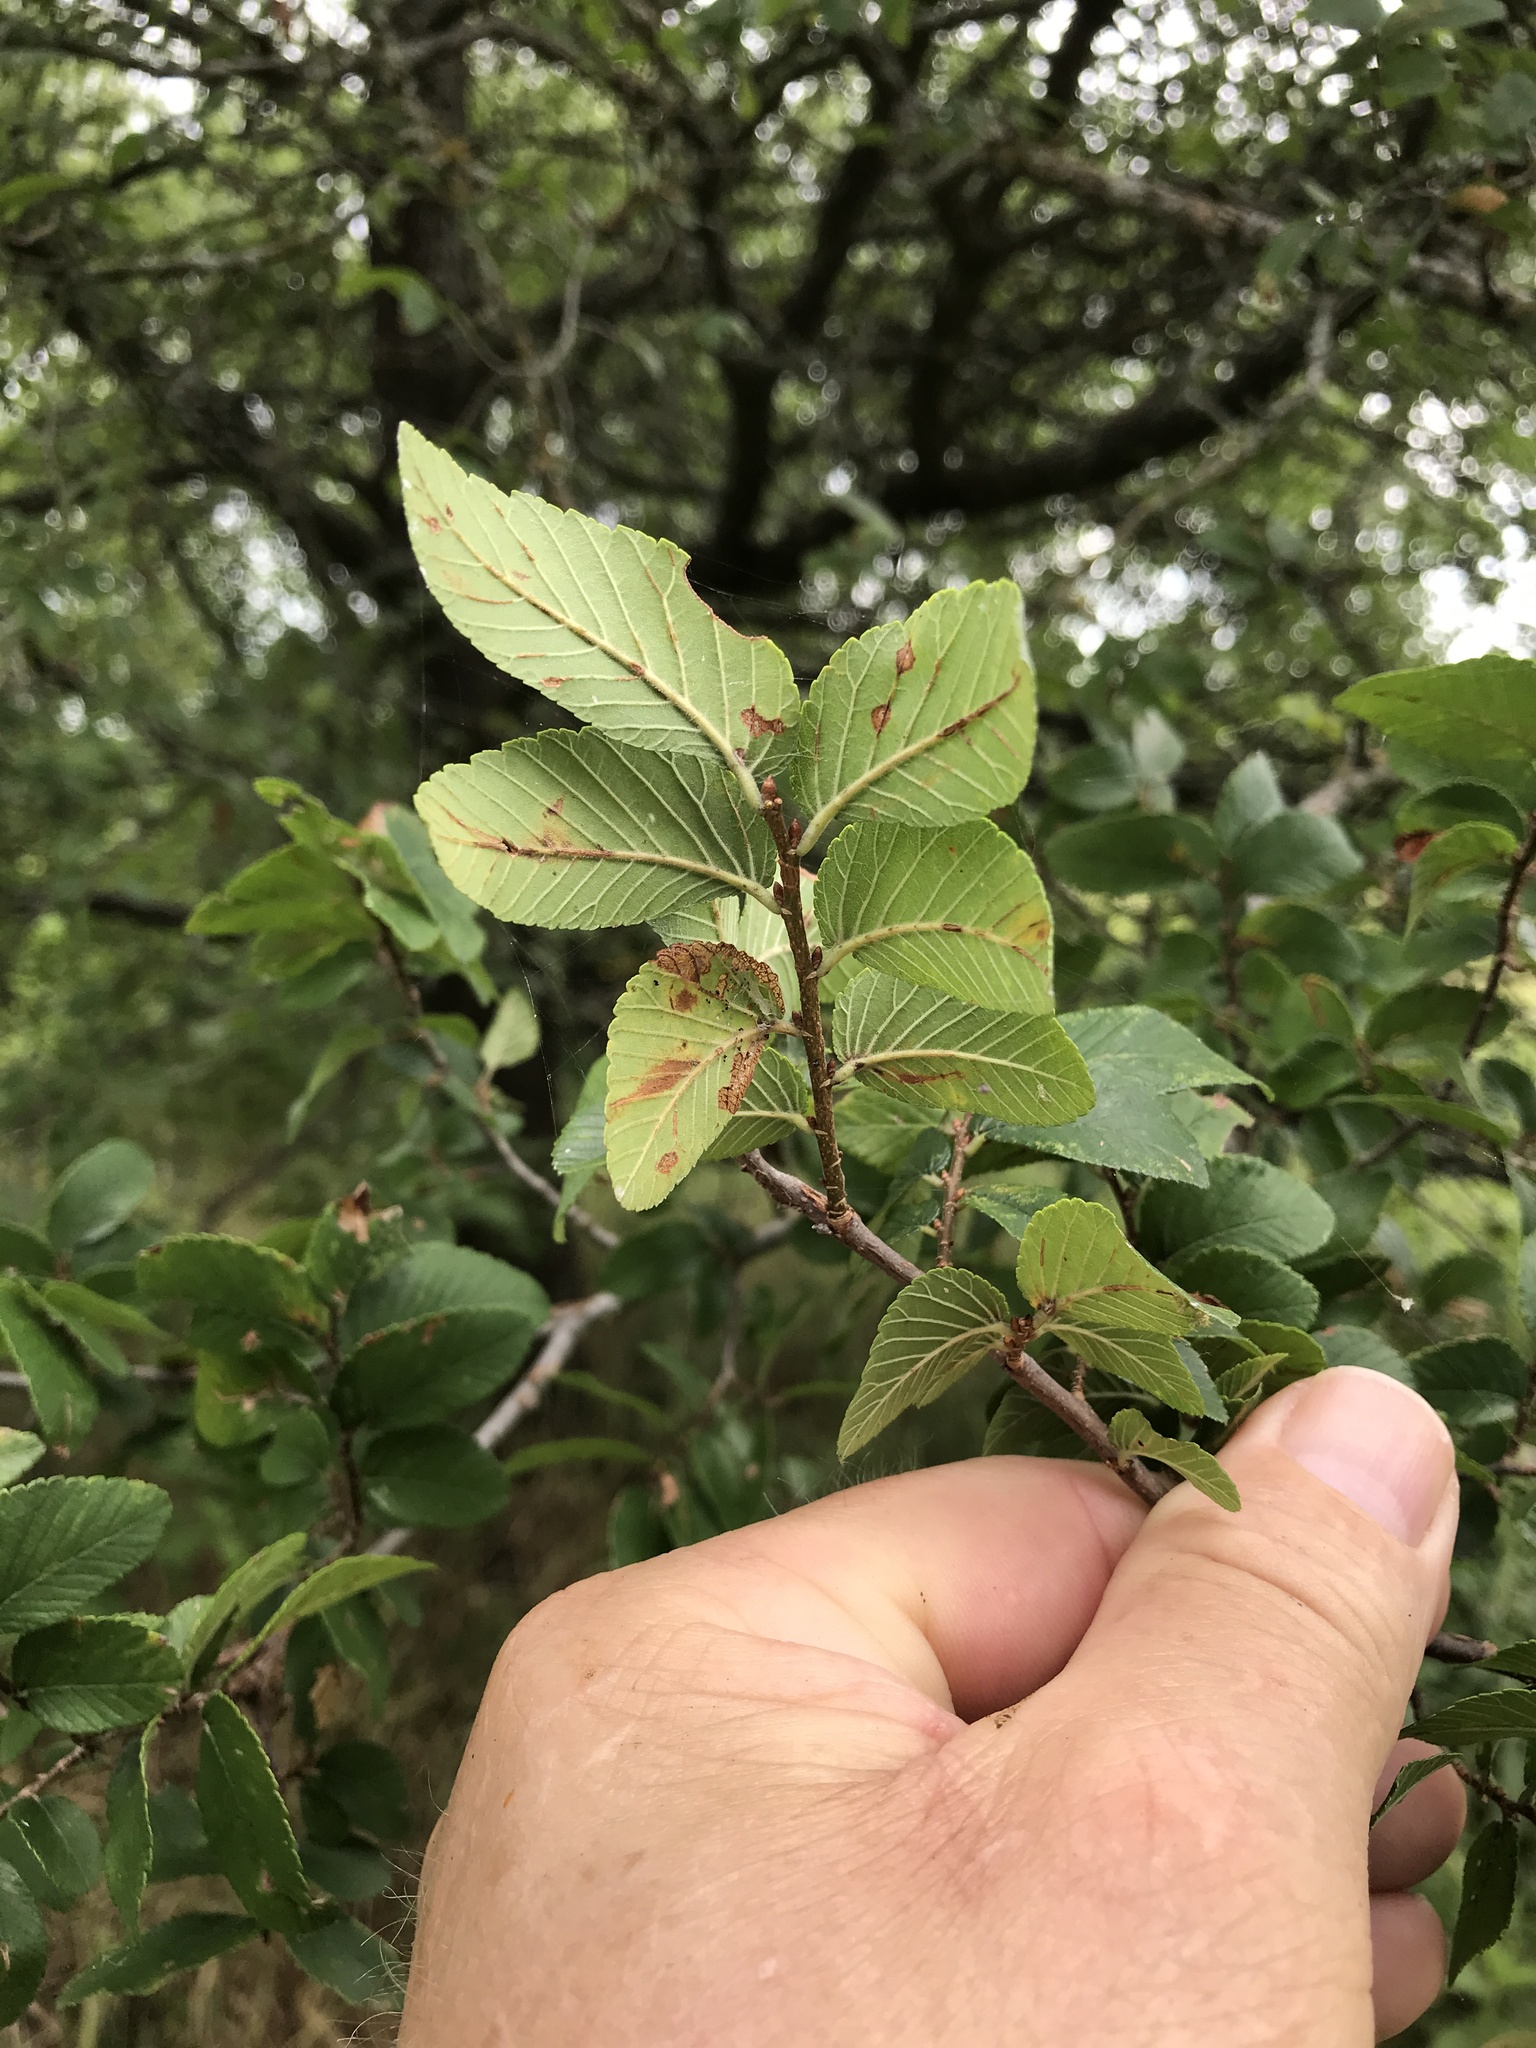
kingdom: Plantae
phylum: Tracheophyta
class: Magnoliopsida
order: Rosales
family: Ulmaceae
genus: Ulmus
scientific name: Ulmus crassifolia
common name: Basket elm
